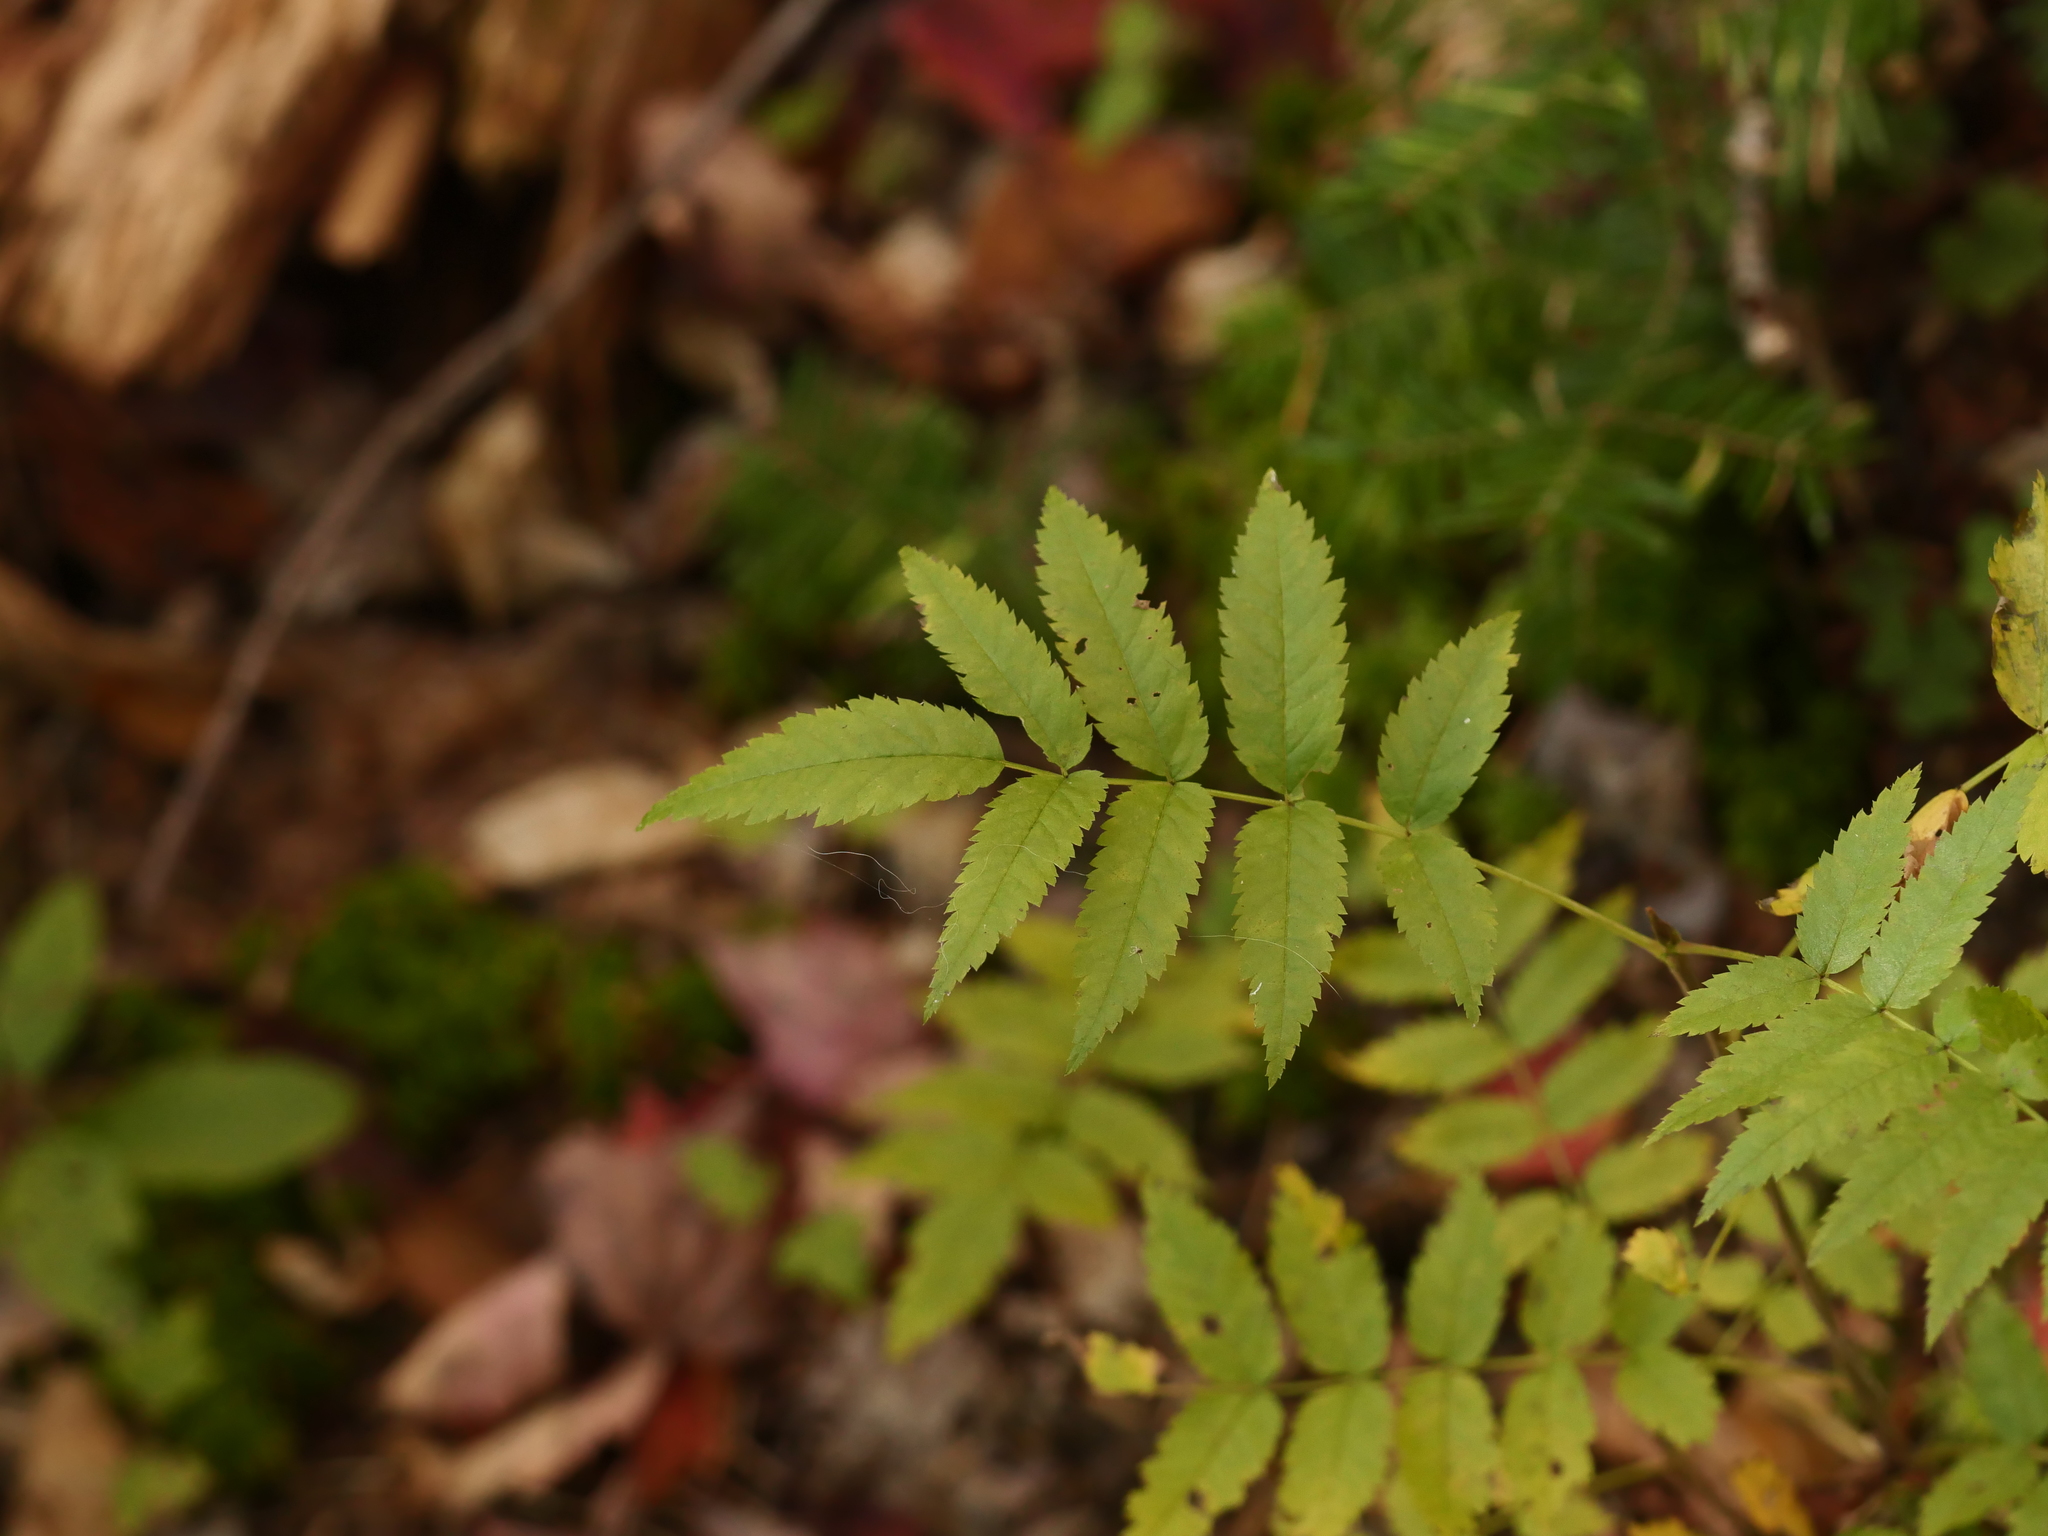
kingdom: Plantae
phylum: Tracheophyta
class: Magnoliopsida
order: Rosales
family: Rosaceae
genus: Sorbus
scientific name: Sorbus americana
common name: American mountain-ash
